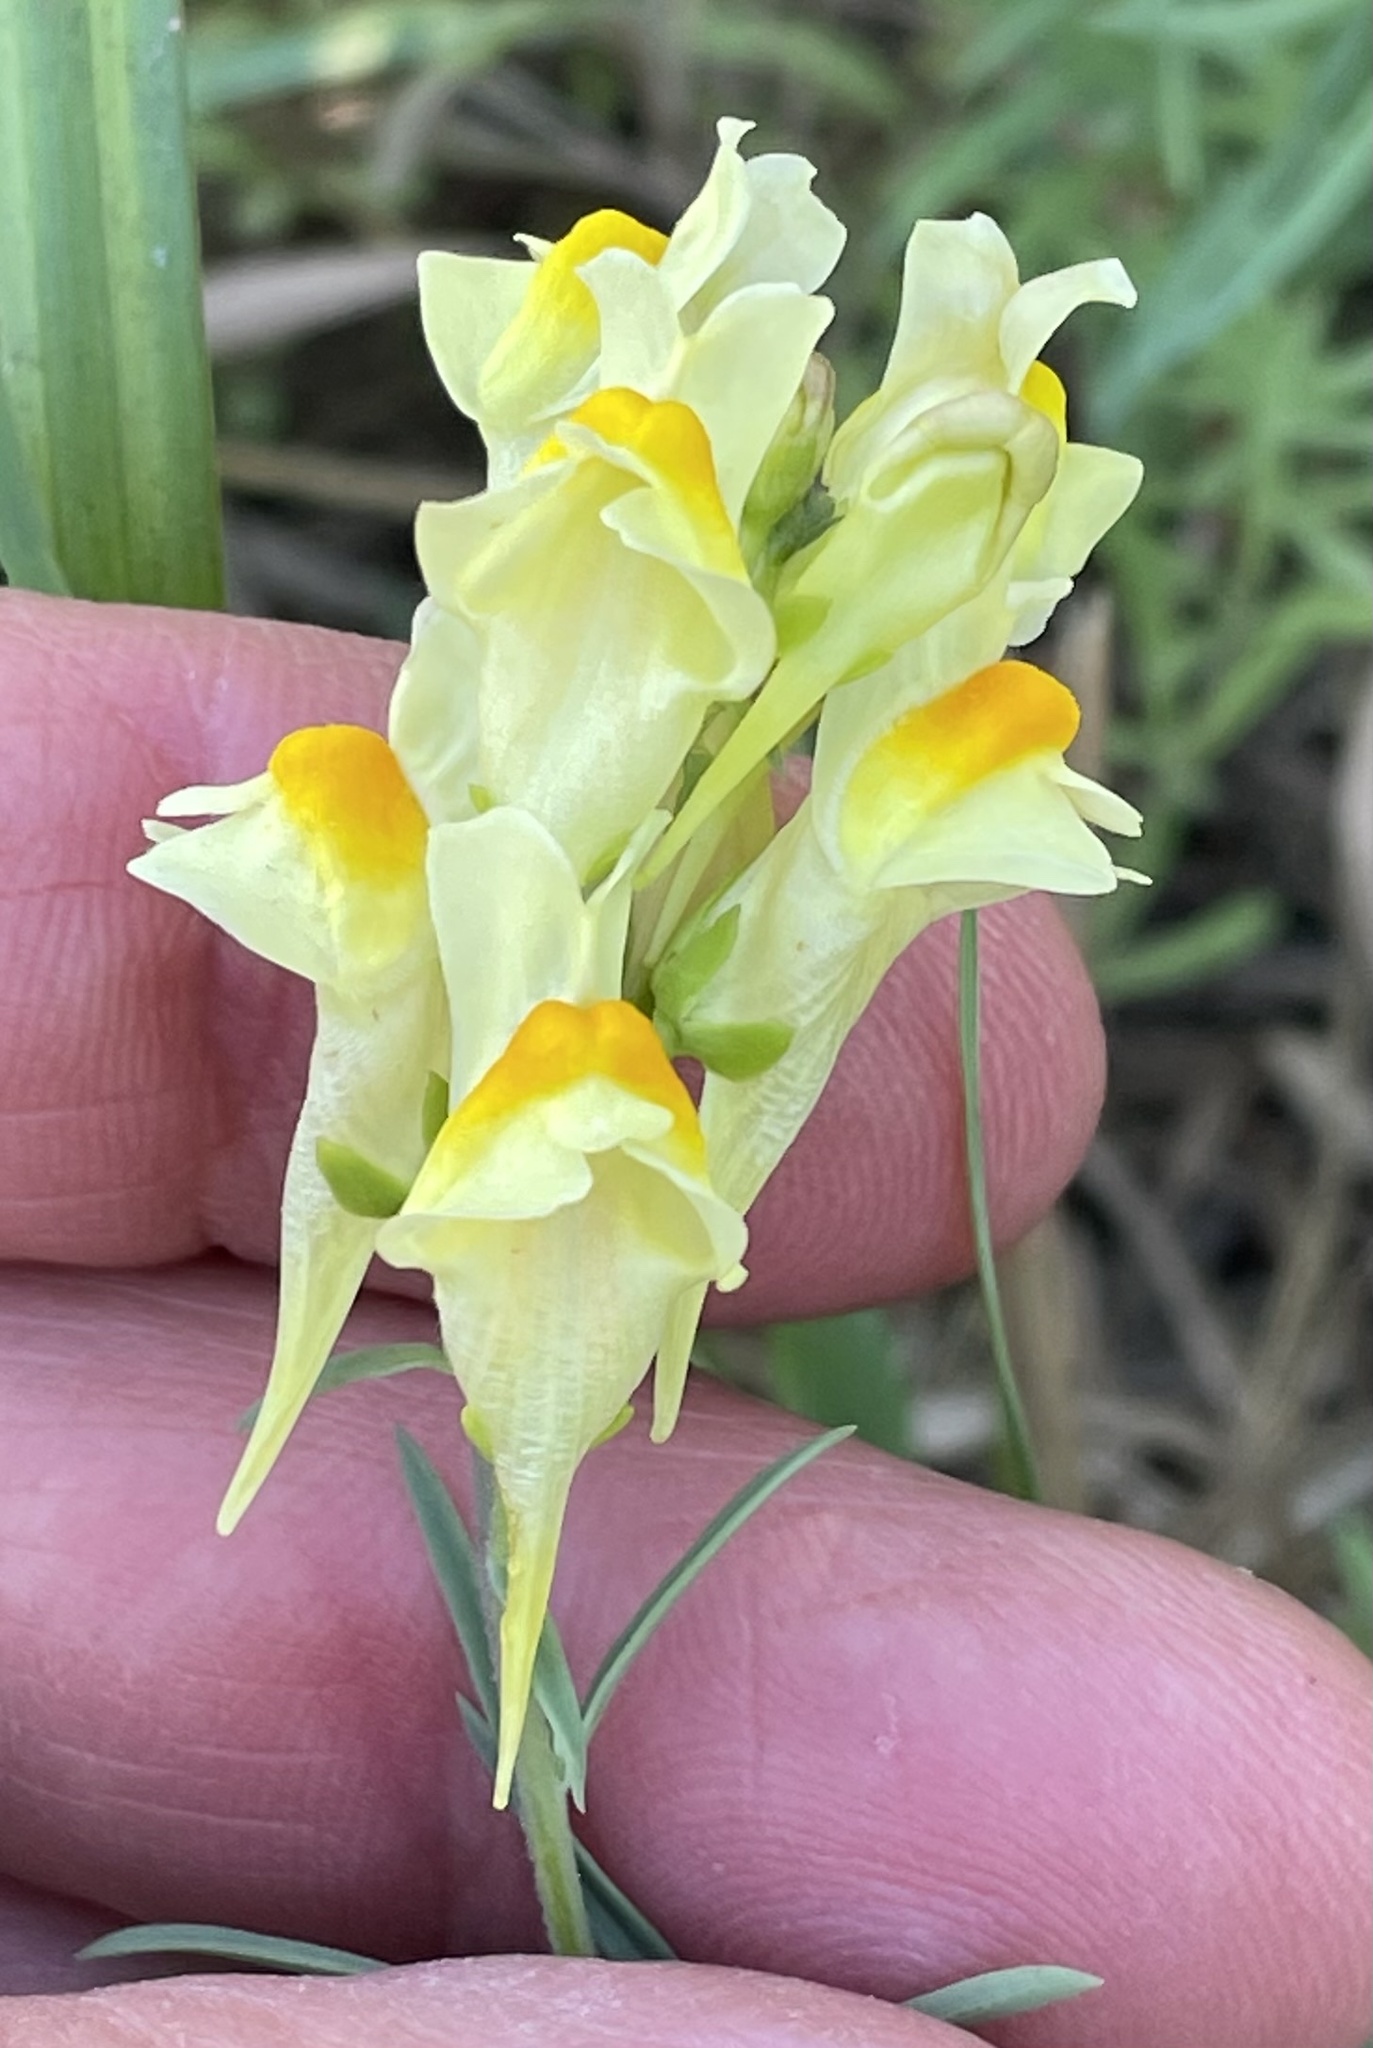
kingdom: Plantae
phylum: Tracheophyta
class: Magnoliopsida
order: Lamiales
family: Plantaginaceae
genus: Linaria
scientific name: Linaria vulgaris
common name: Butter and eggs
